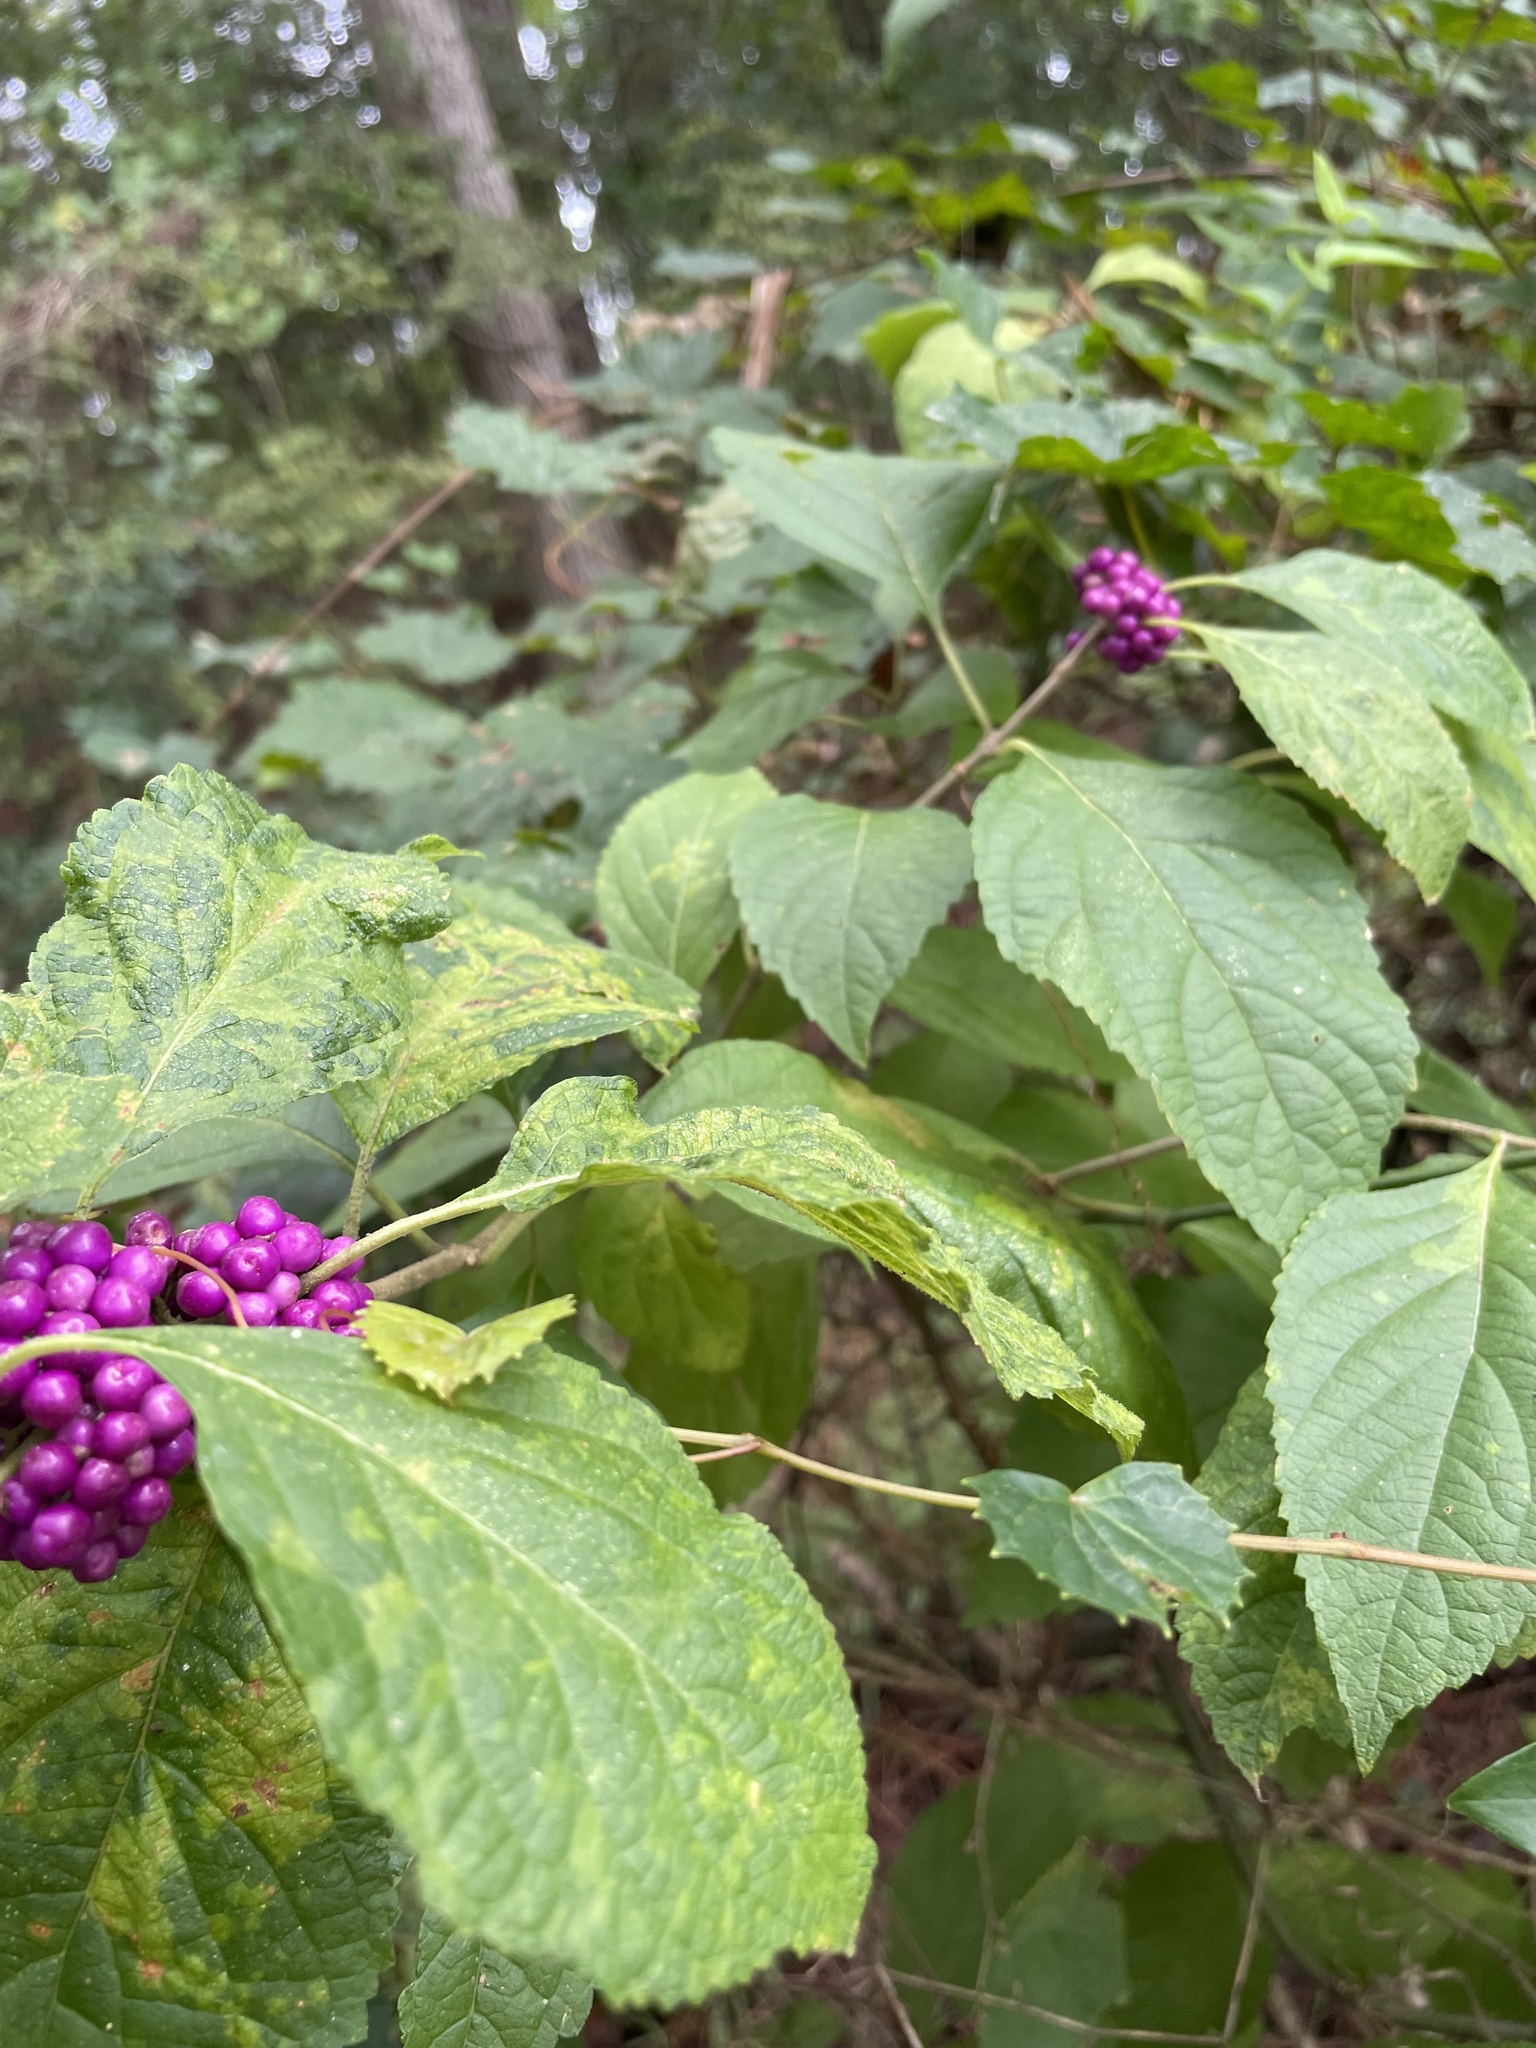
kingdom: Plantae
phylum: Tracheophyta
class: Magnoliopsida
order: Lamiales
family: Lamiaceae
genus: Callicarpa
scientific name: Callicarpa americana
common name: American beautyberry
